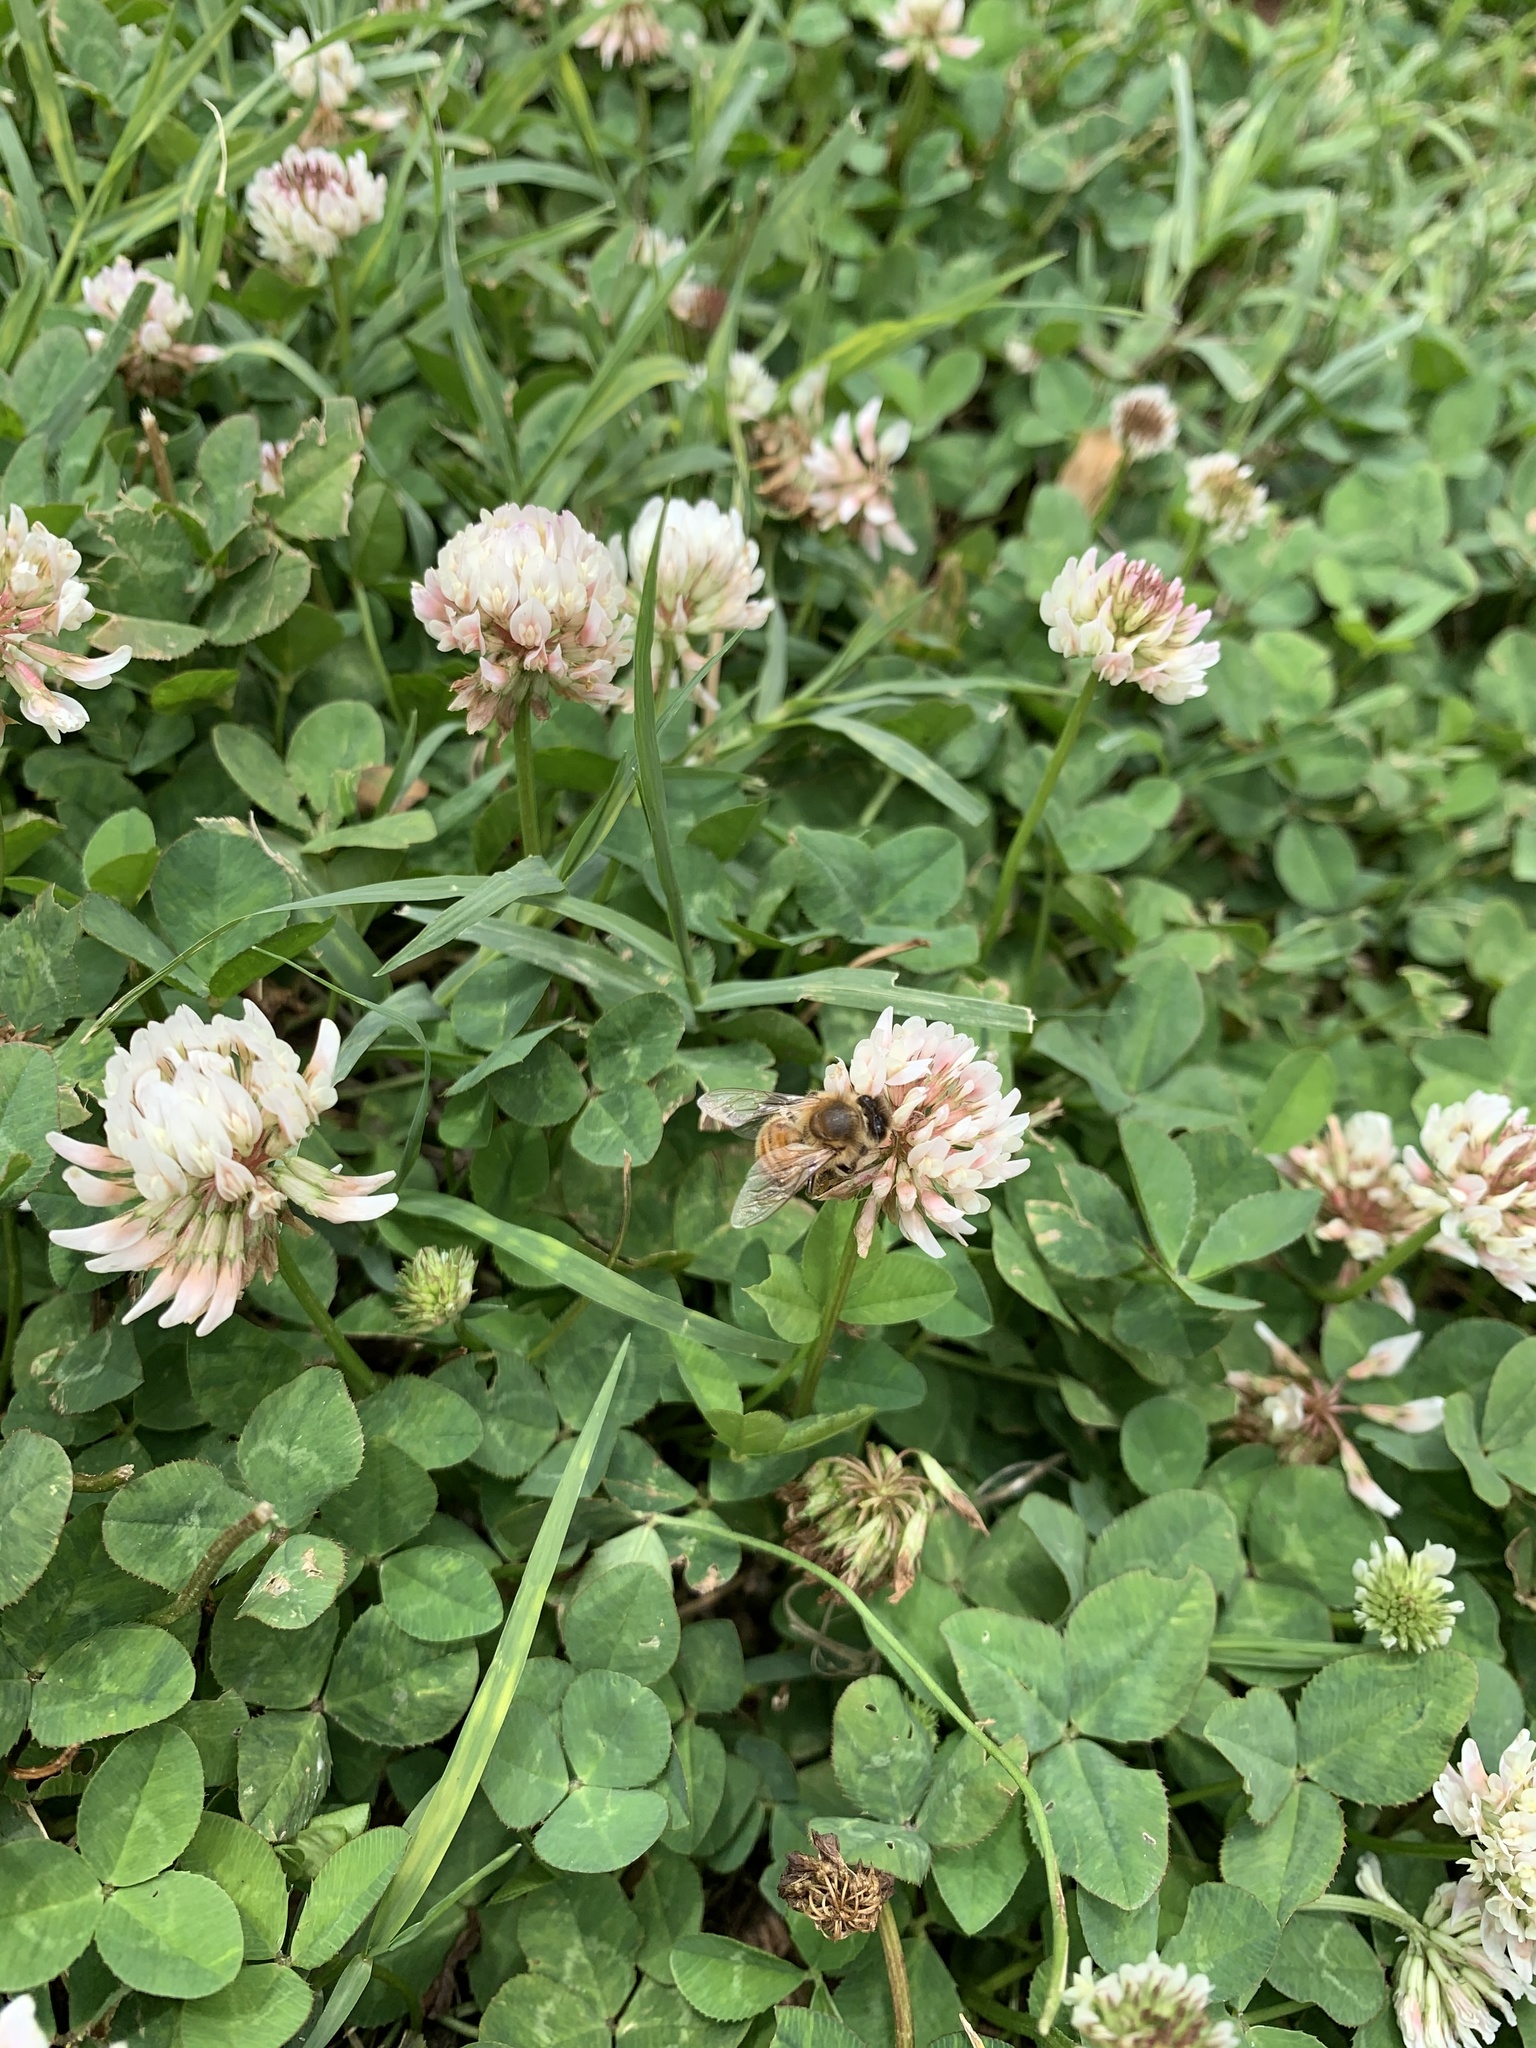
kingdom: Animalia
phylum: Arthropoda
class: Insecta
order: Hymenoptera
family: Apidae
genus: Apis
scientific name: Apis mellifera
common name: Honey bee
